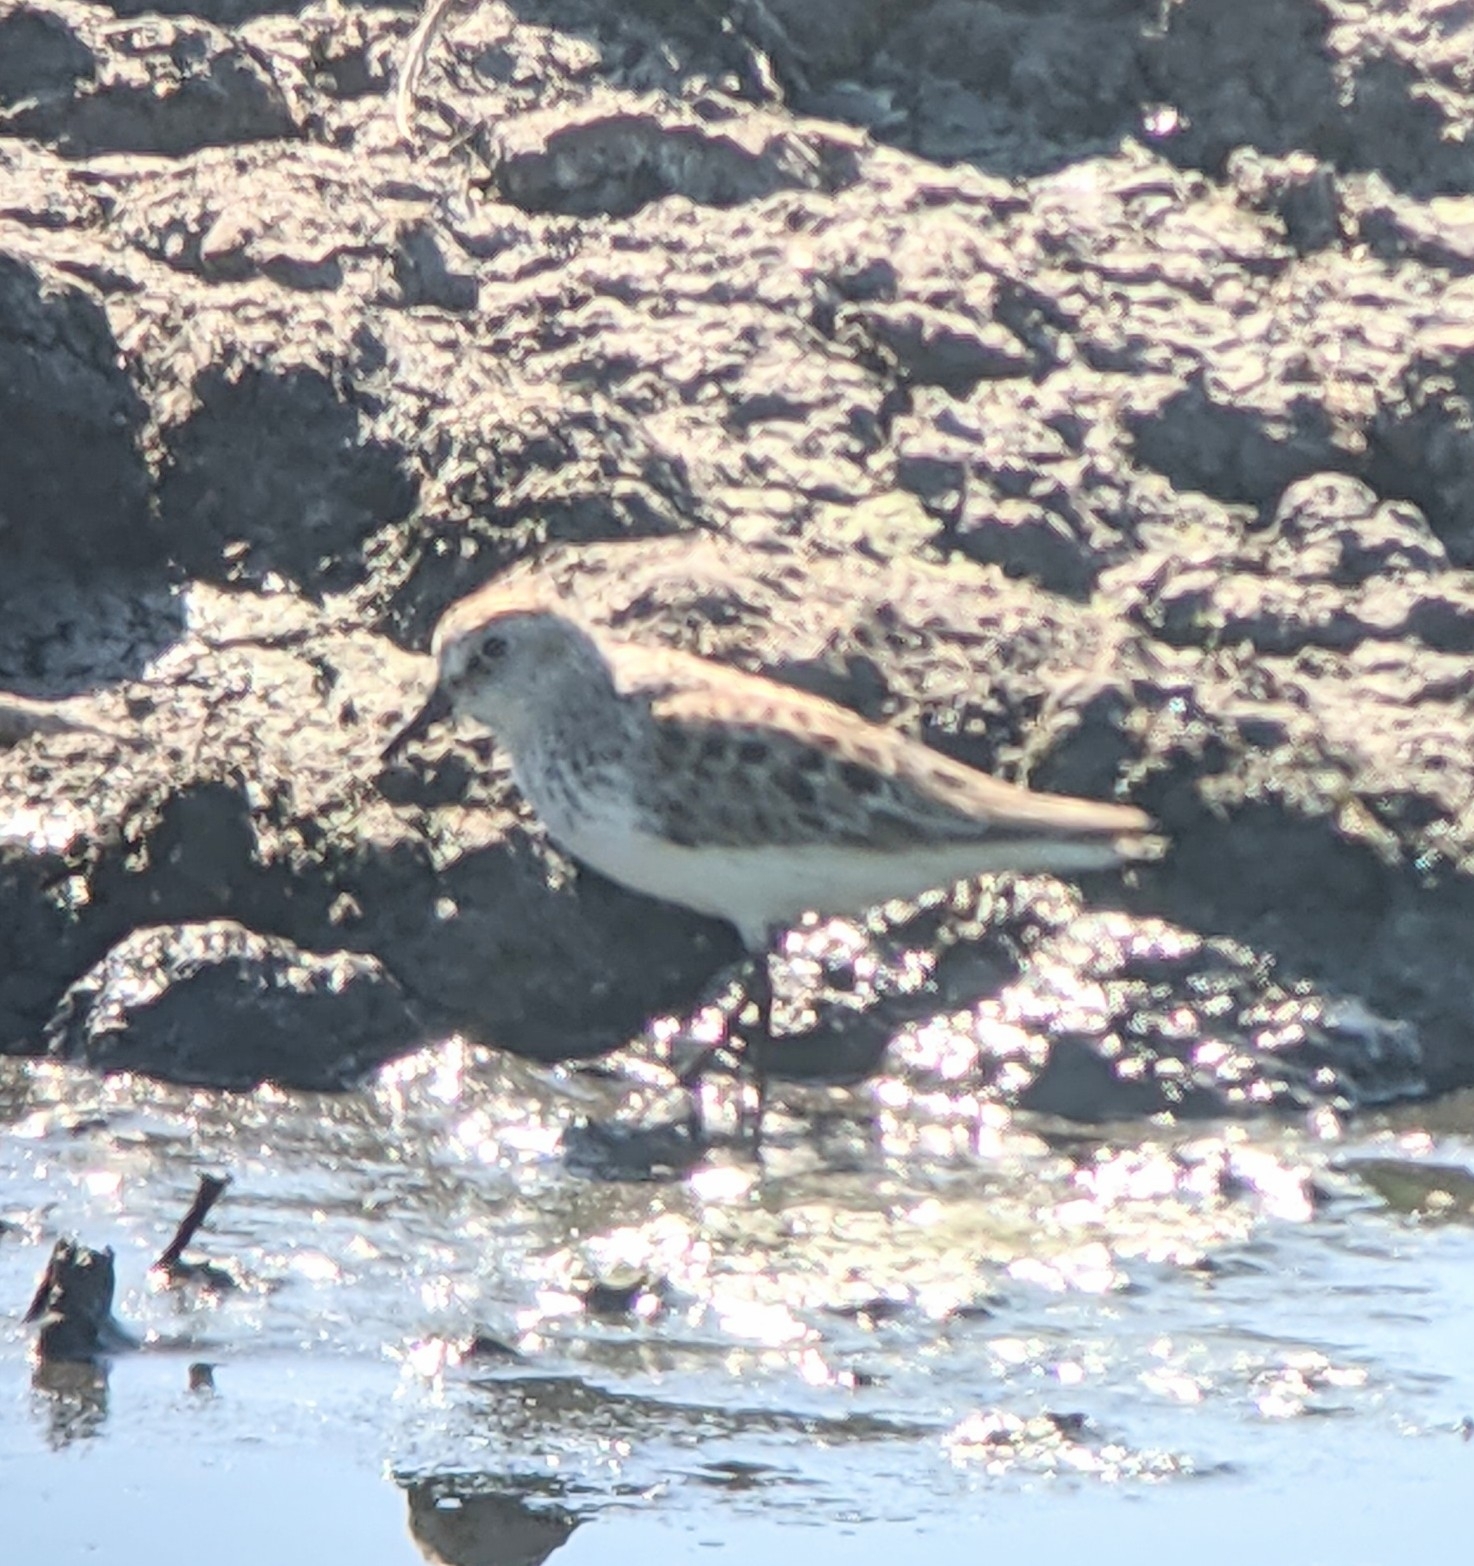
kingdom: Animalia
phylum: Chordata
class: Aves
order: Charadriiformes
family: Scolopacidae
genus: Calidris
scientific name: Calidris pusilla
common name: Semipalmated sandpiper
